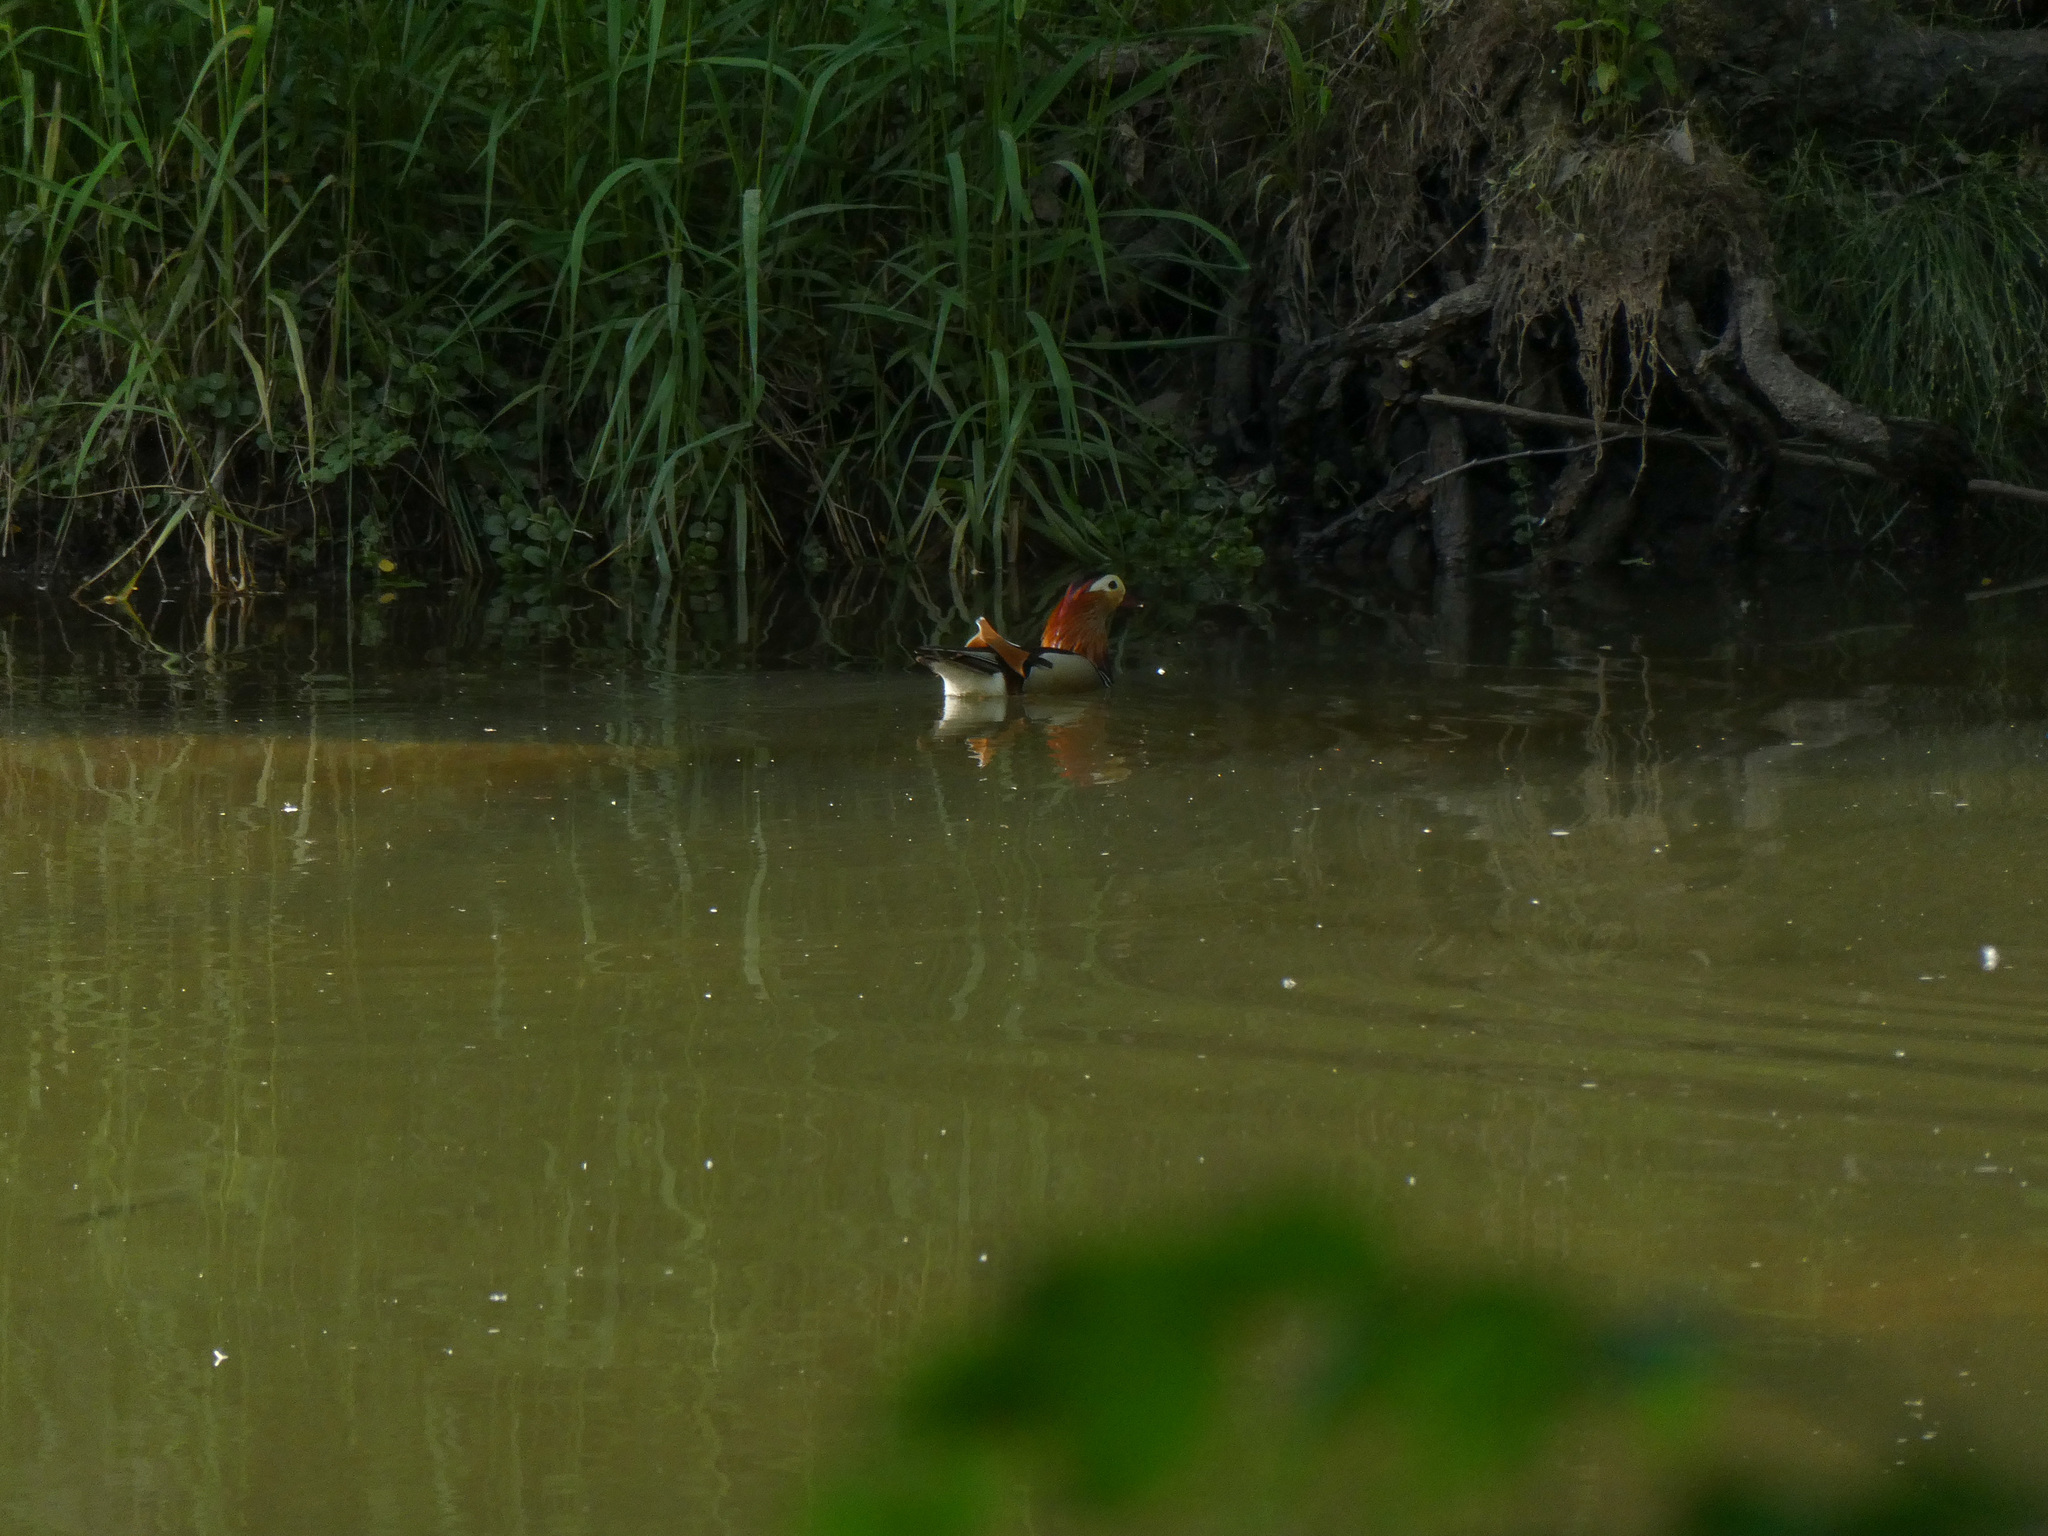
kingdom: Animalia
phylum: Chordata
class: Aves
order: Anseriformes
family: Anatidae
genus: Aix
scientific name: Aix galericulata
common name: Mandarin duck
